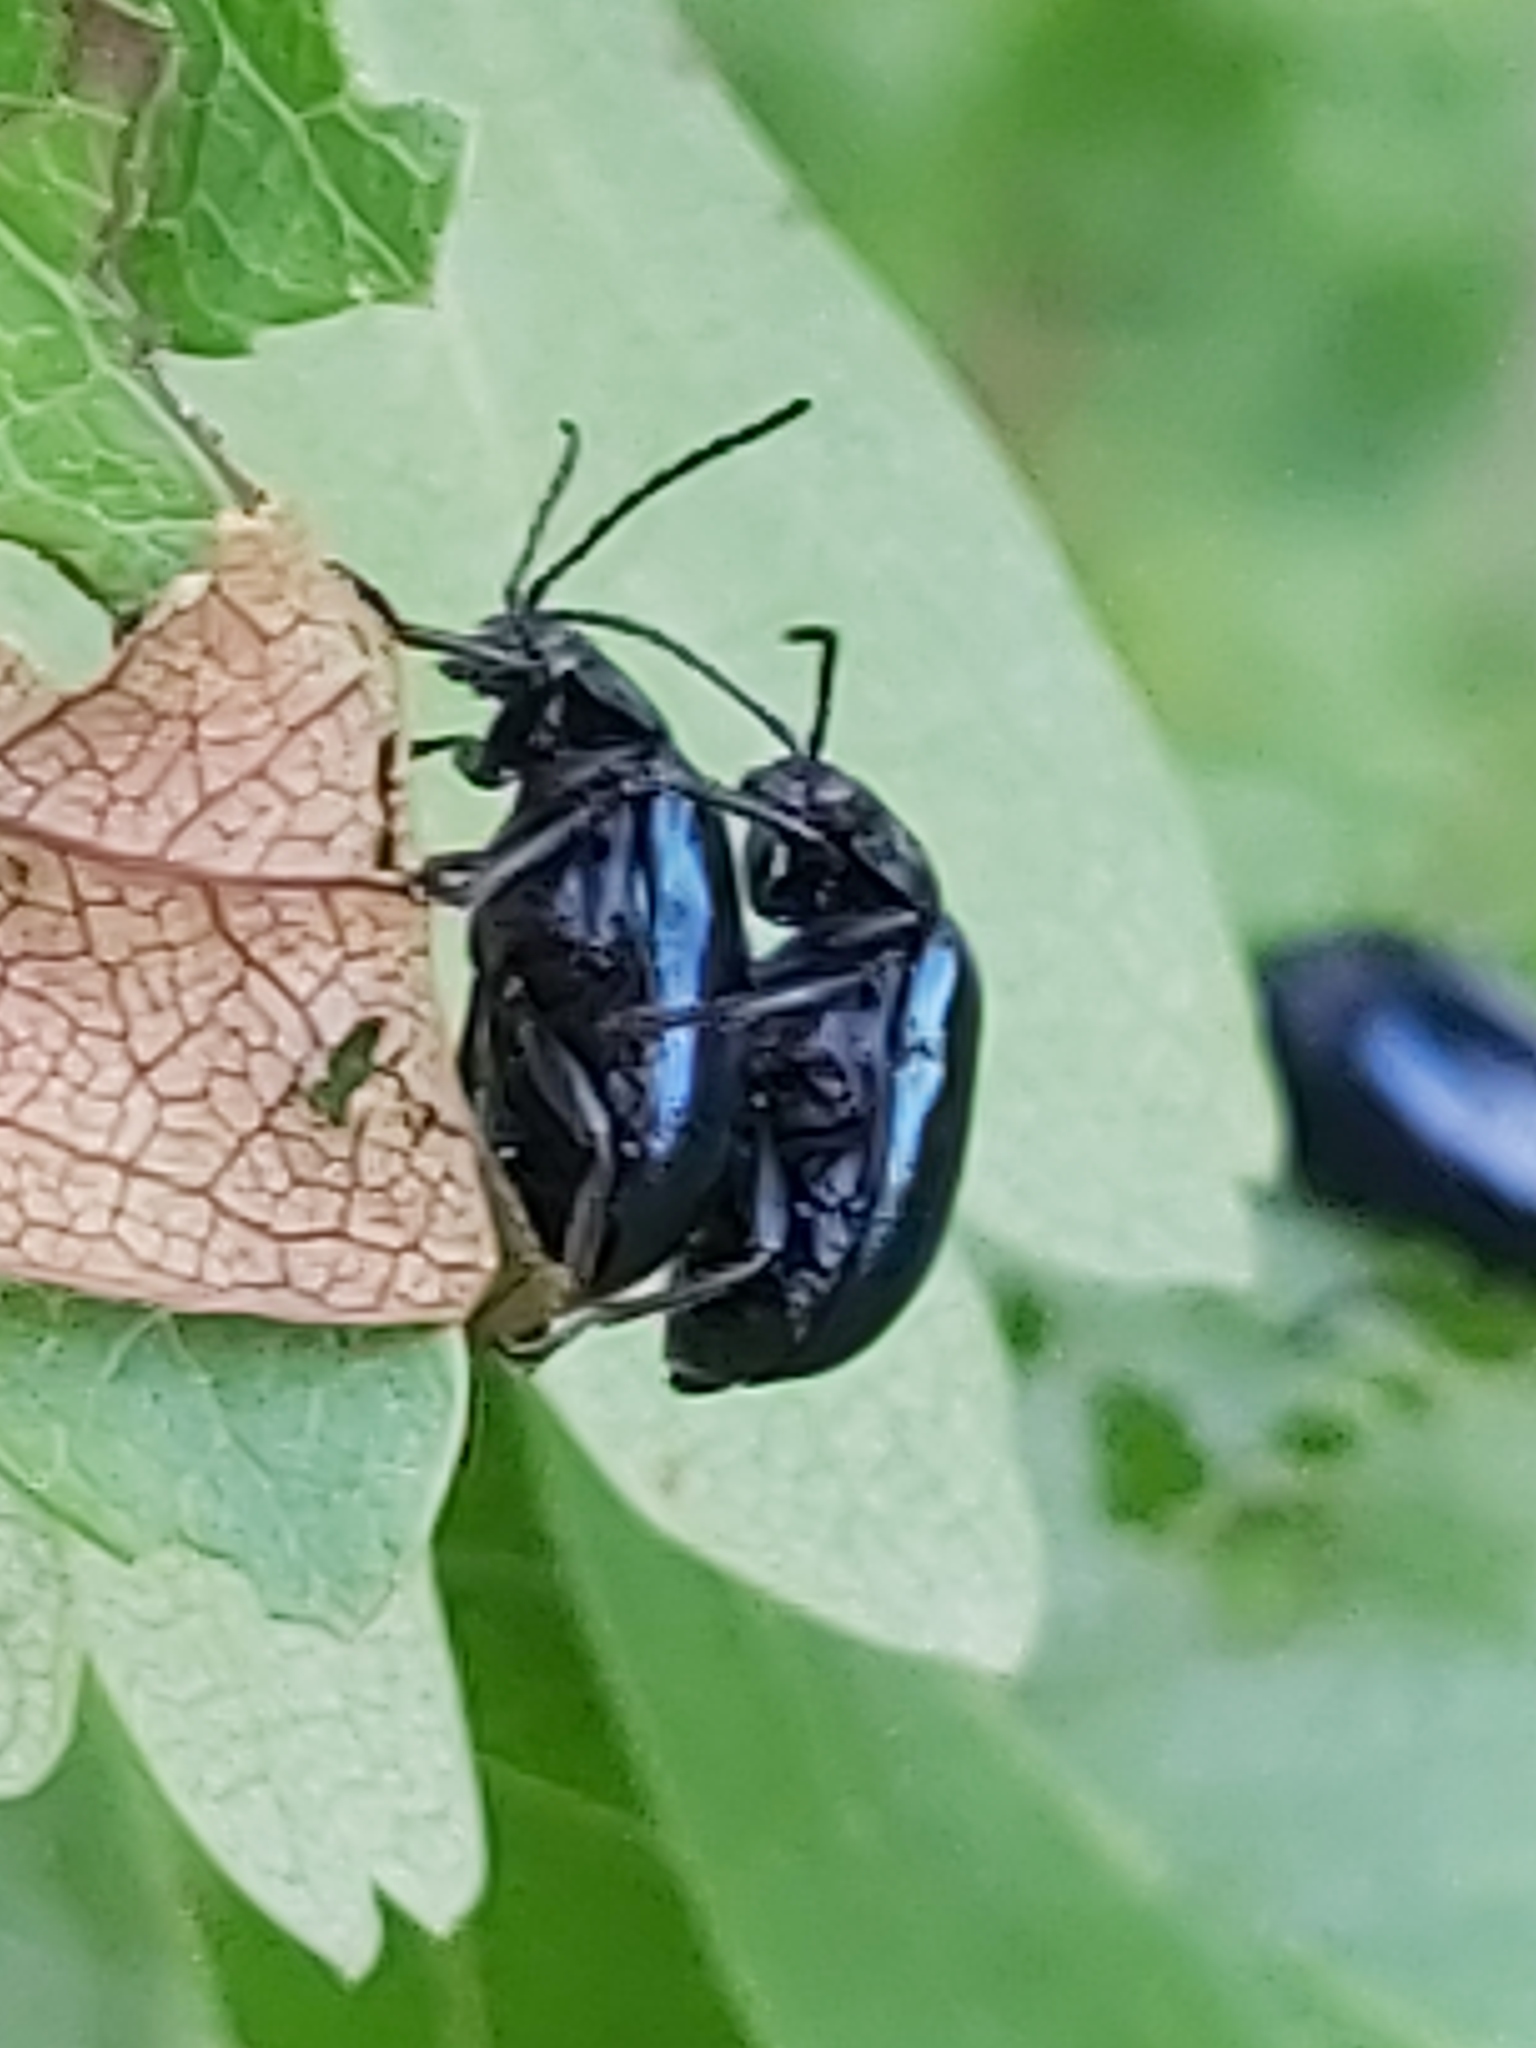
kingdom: Animalia
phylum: Arthropoda
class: Insecta
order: Coleoptera
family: Chrysomelidae
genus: Agelastica
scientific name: Agelastica alni
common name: Alder leaf beetle
